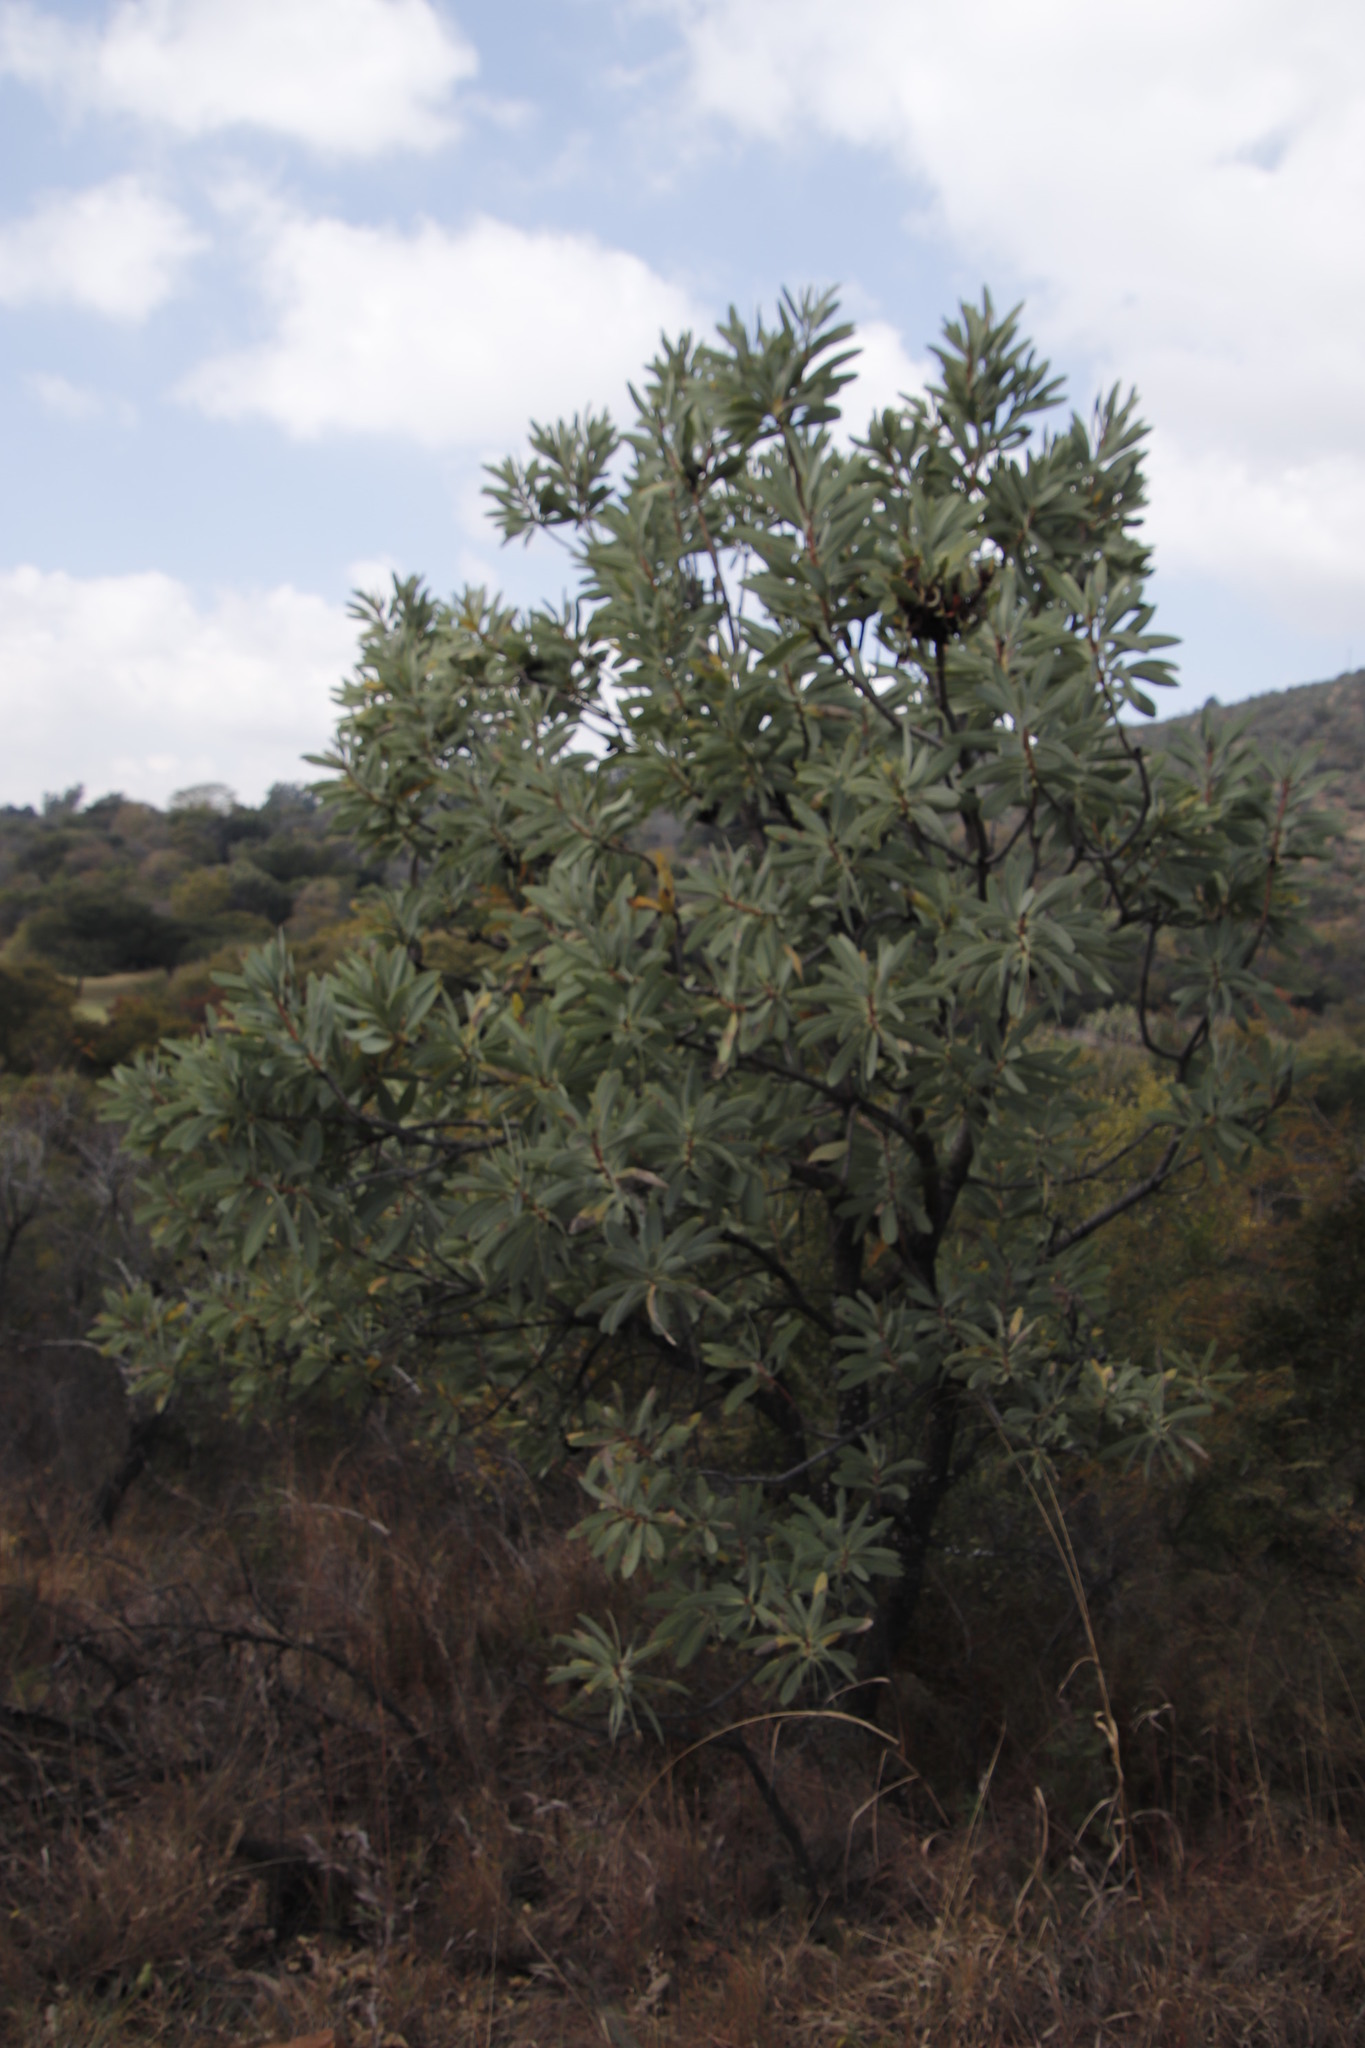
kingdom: Plantae
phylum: Tracheophyta
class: Magnoliopsida
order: Proteales
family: Proteaceae
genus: Protea
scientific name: Protea caffra
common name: Common sugarbush
